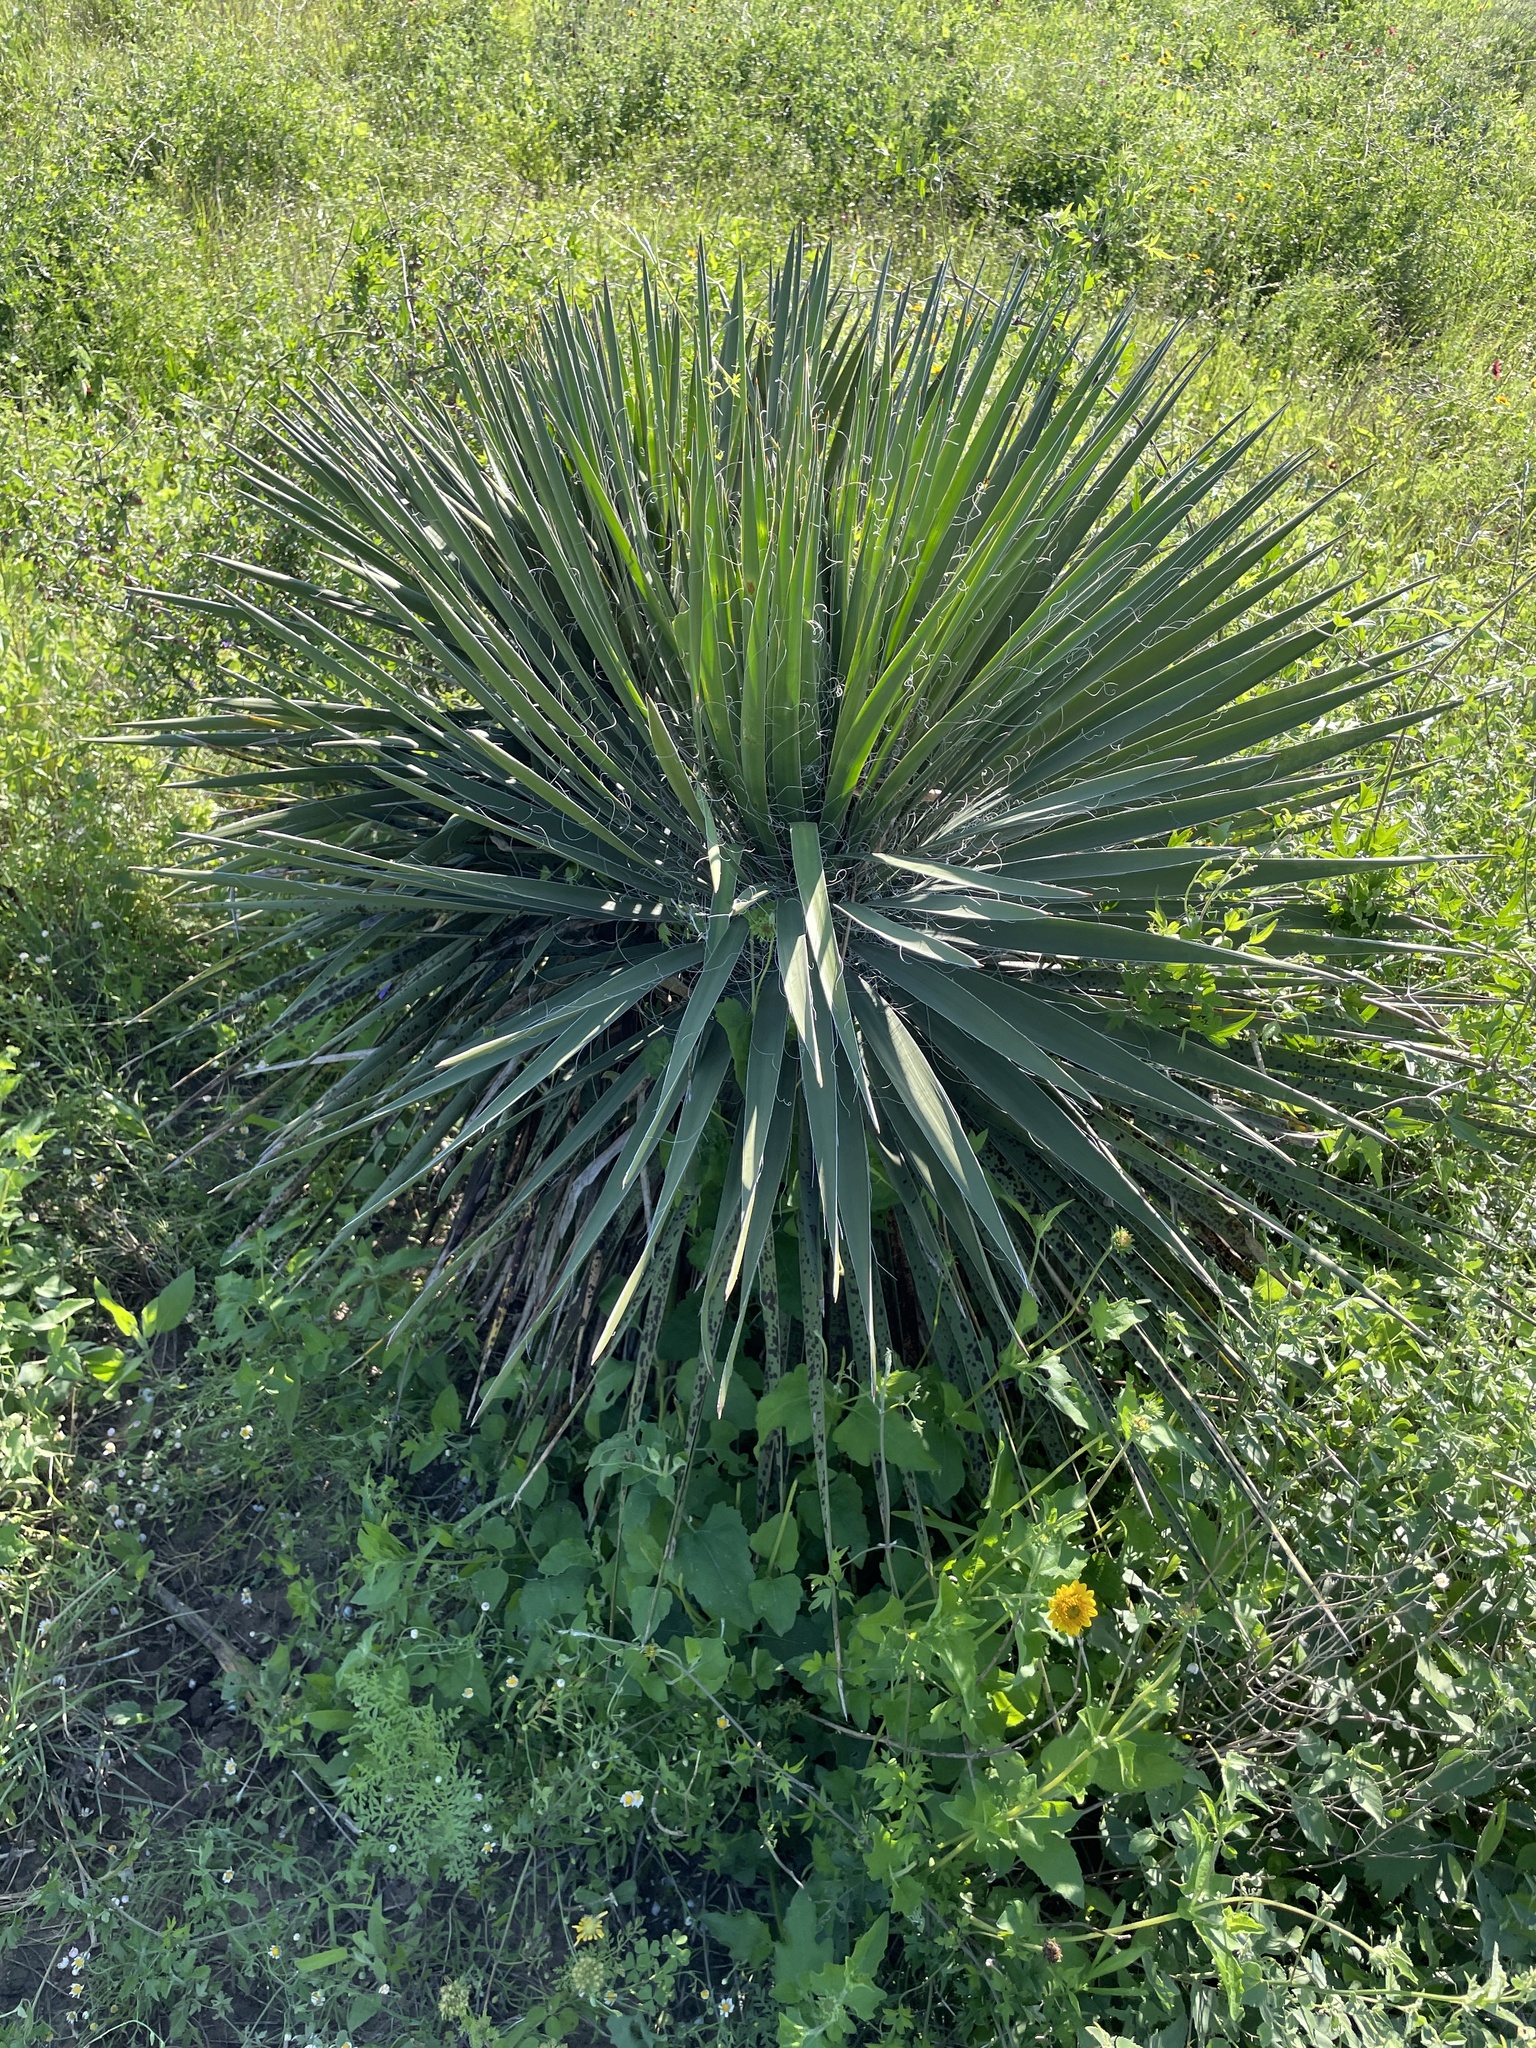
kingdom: Plantae
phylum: Tracheophyta
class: Liliopsida
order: Asparagales
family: Asparagaceae
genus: Yucca
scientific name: Yucca constricta
